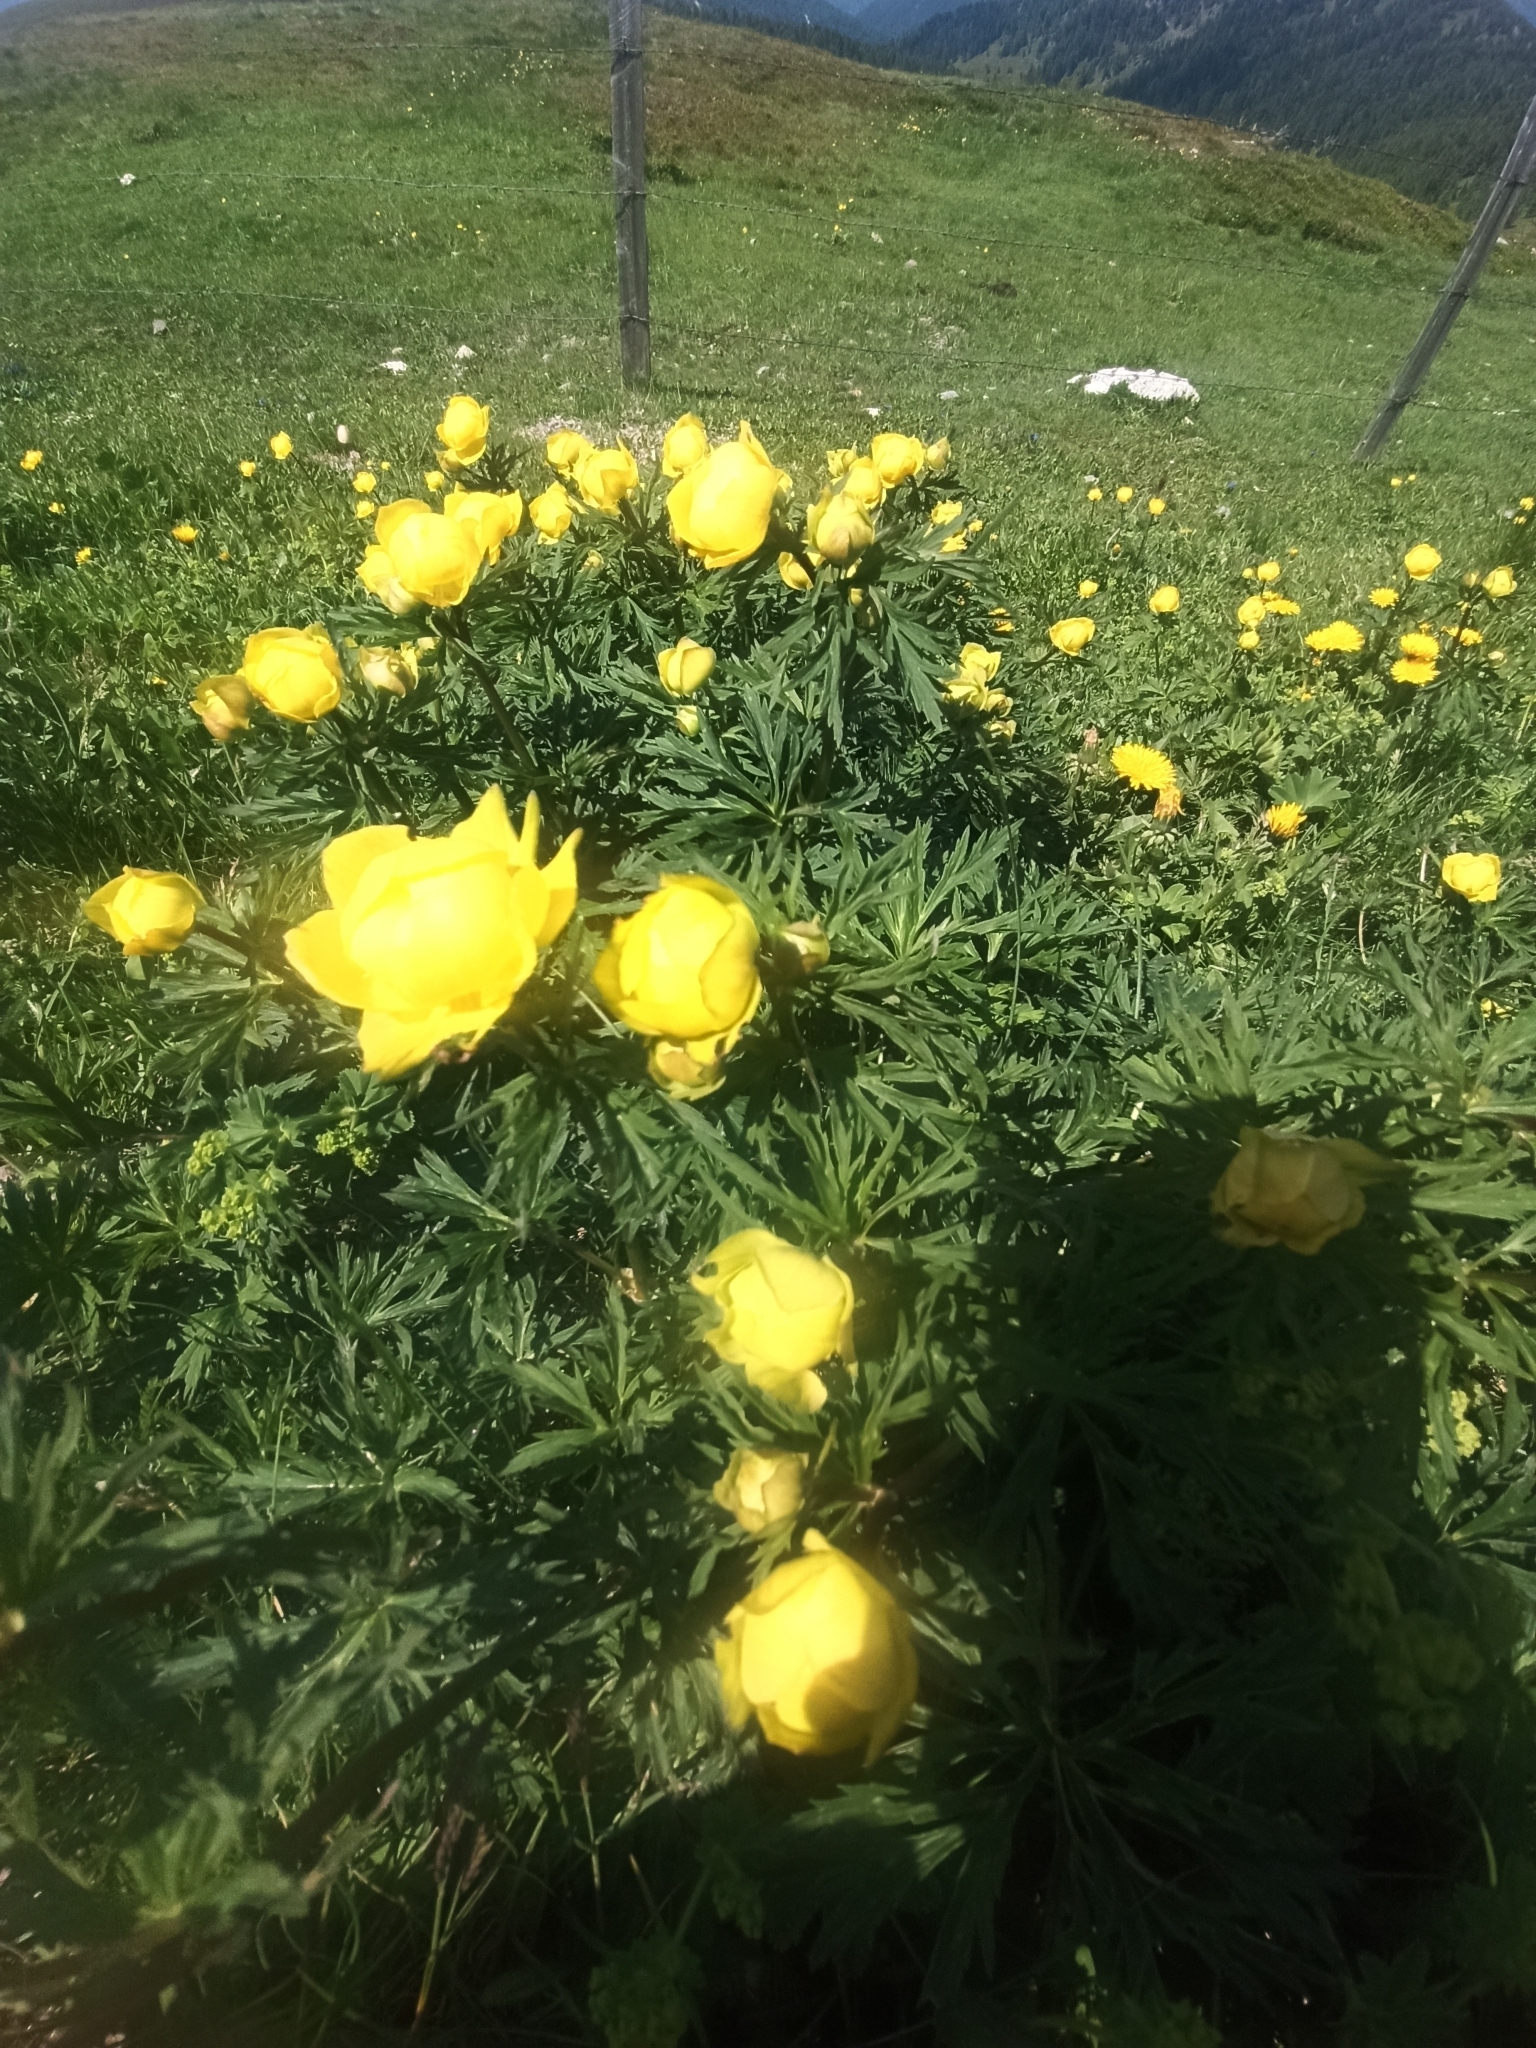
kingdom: Plantae
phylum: Tracheophyta
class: Magnoliopsida
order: Ranunculales
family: Ranunculaceae
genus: Trollius
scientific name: Trollius europaeus
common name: European globeflower
